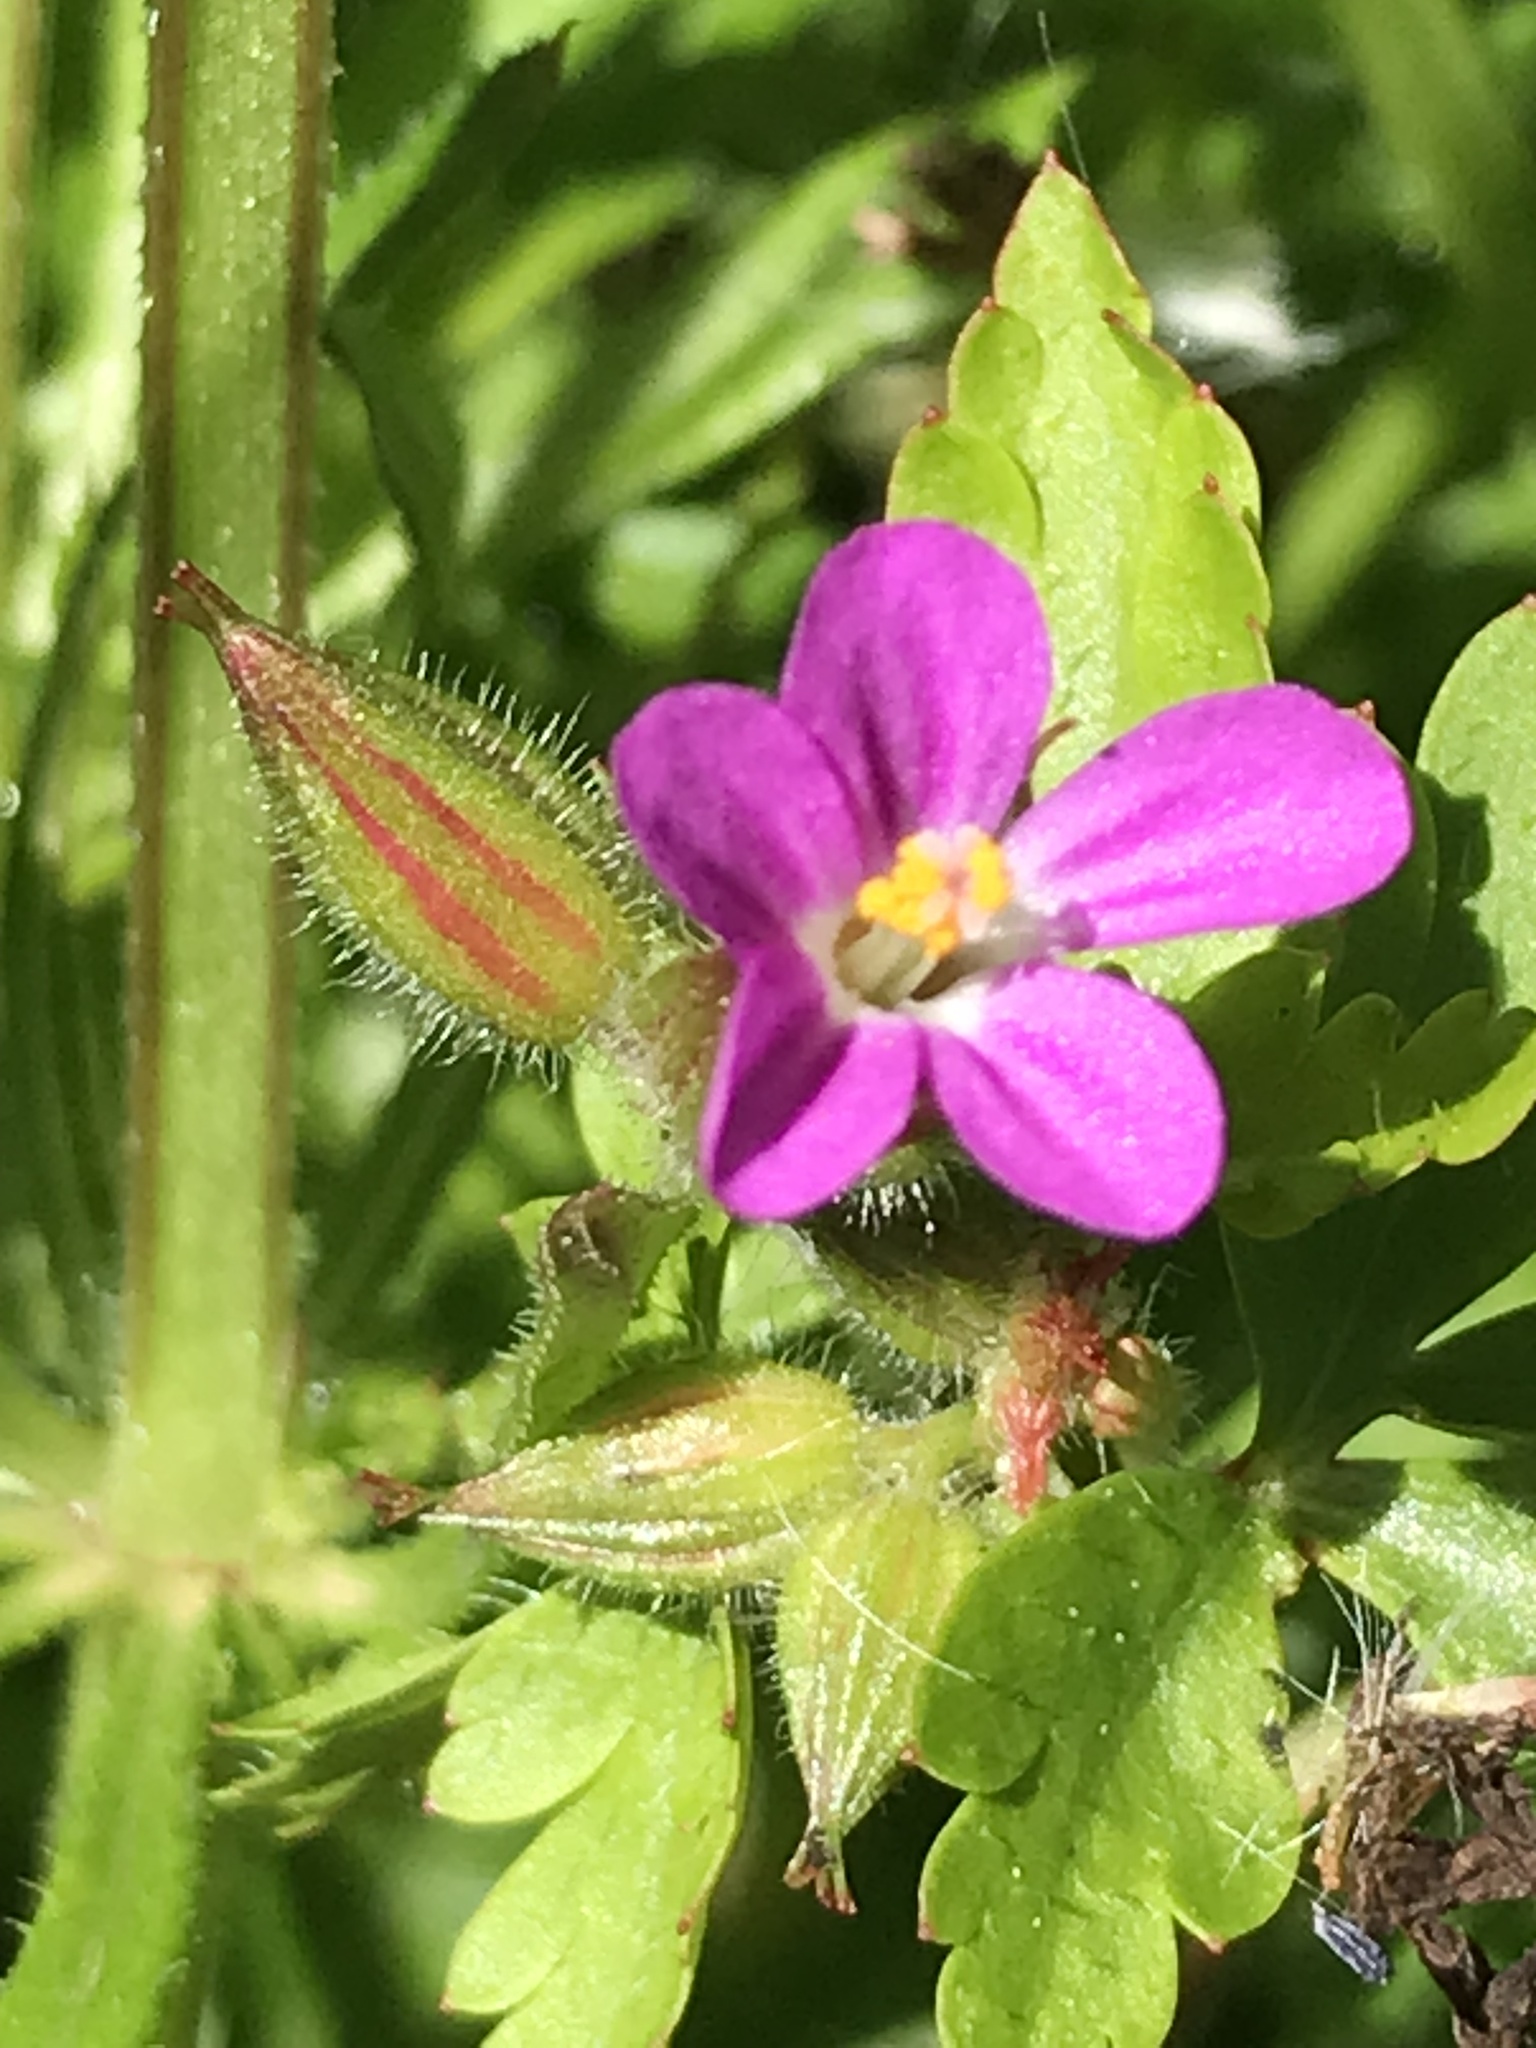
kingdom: Plantae
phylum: Tracheophyta
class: Magnoliopsida
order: Geraniales
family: Geraniaceae
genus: Geranium
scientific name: Geranium purpureum
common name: Little-robin
